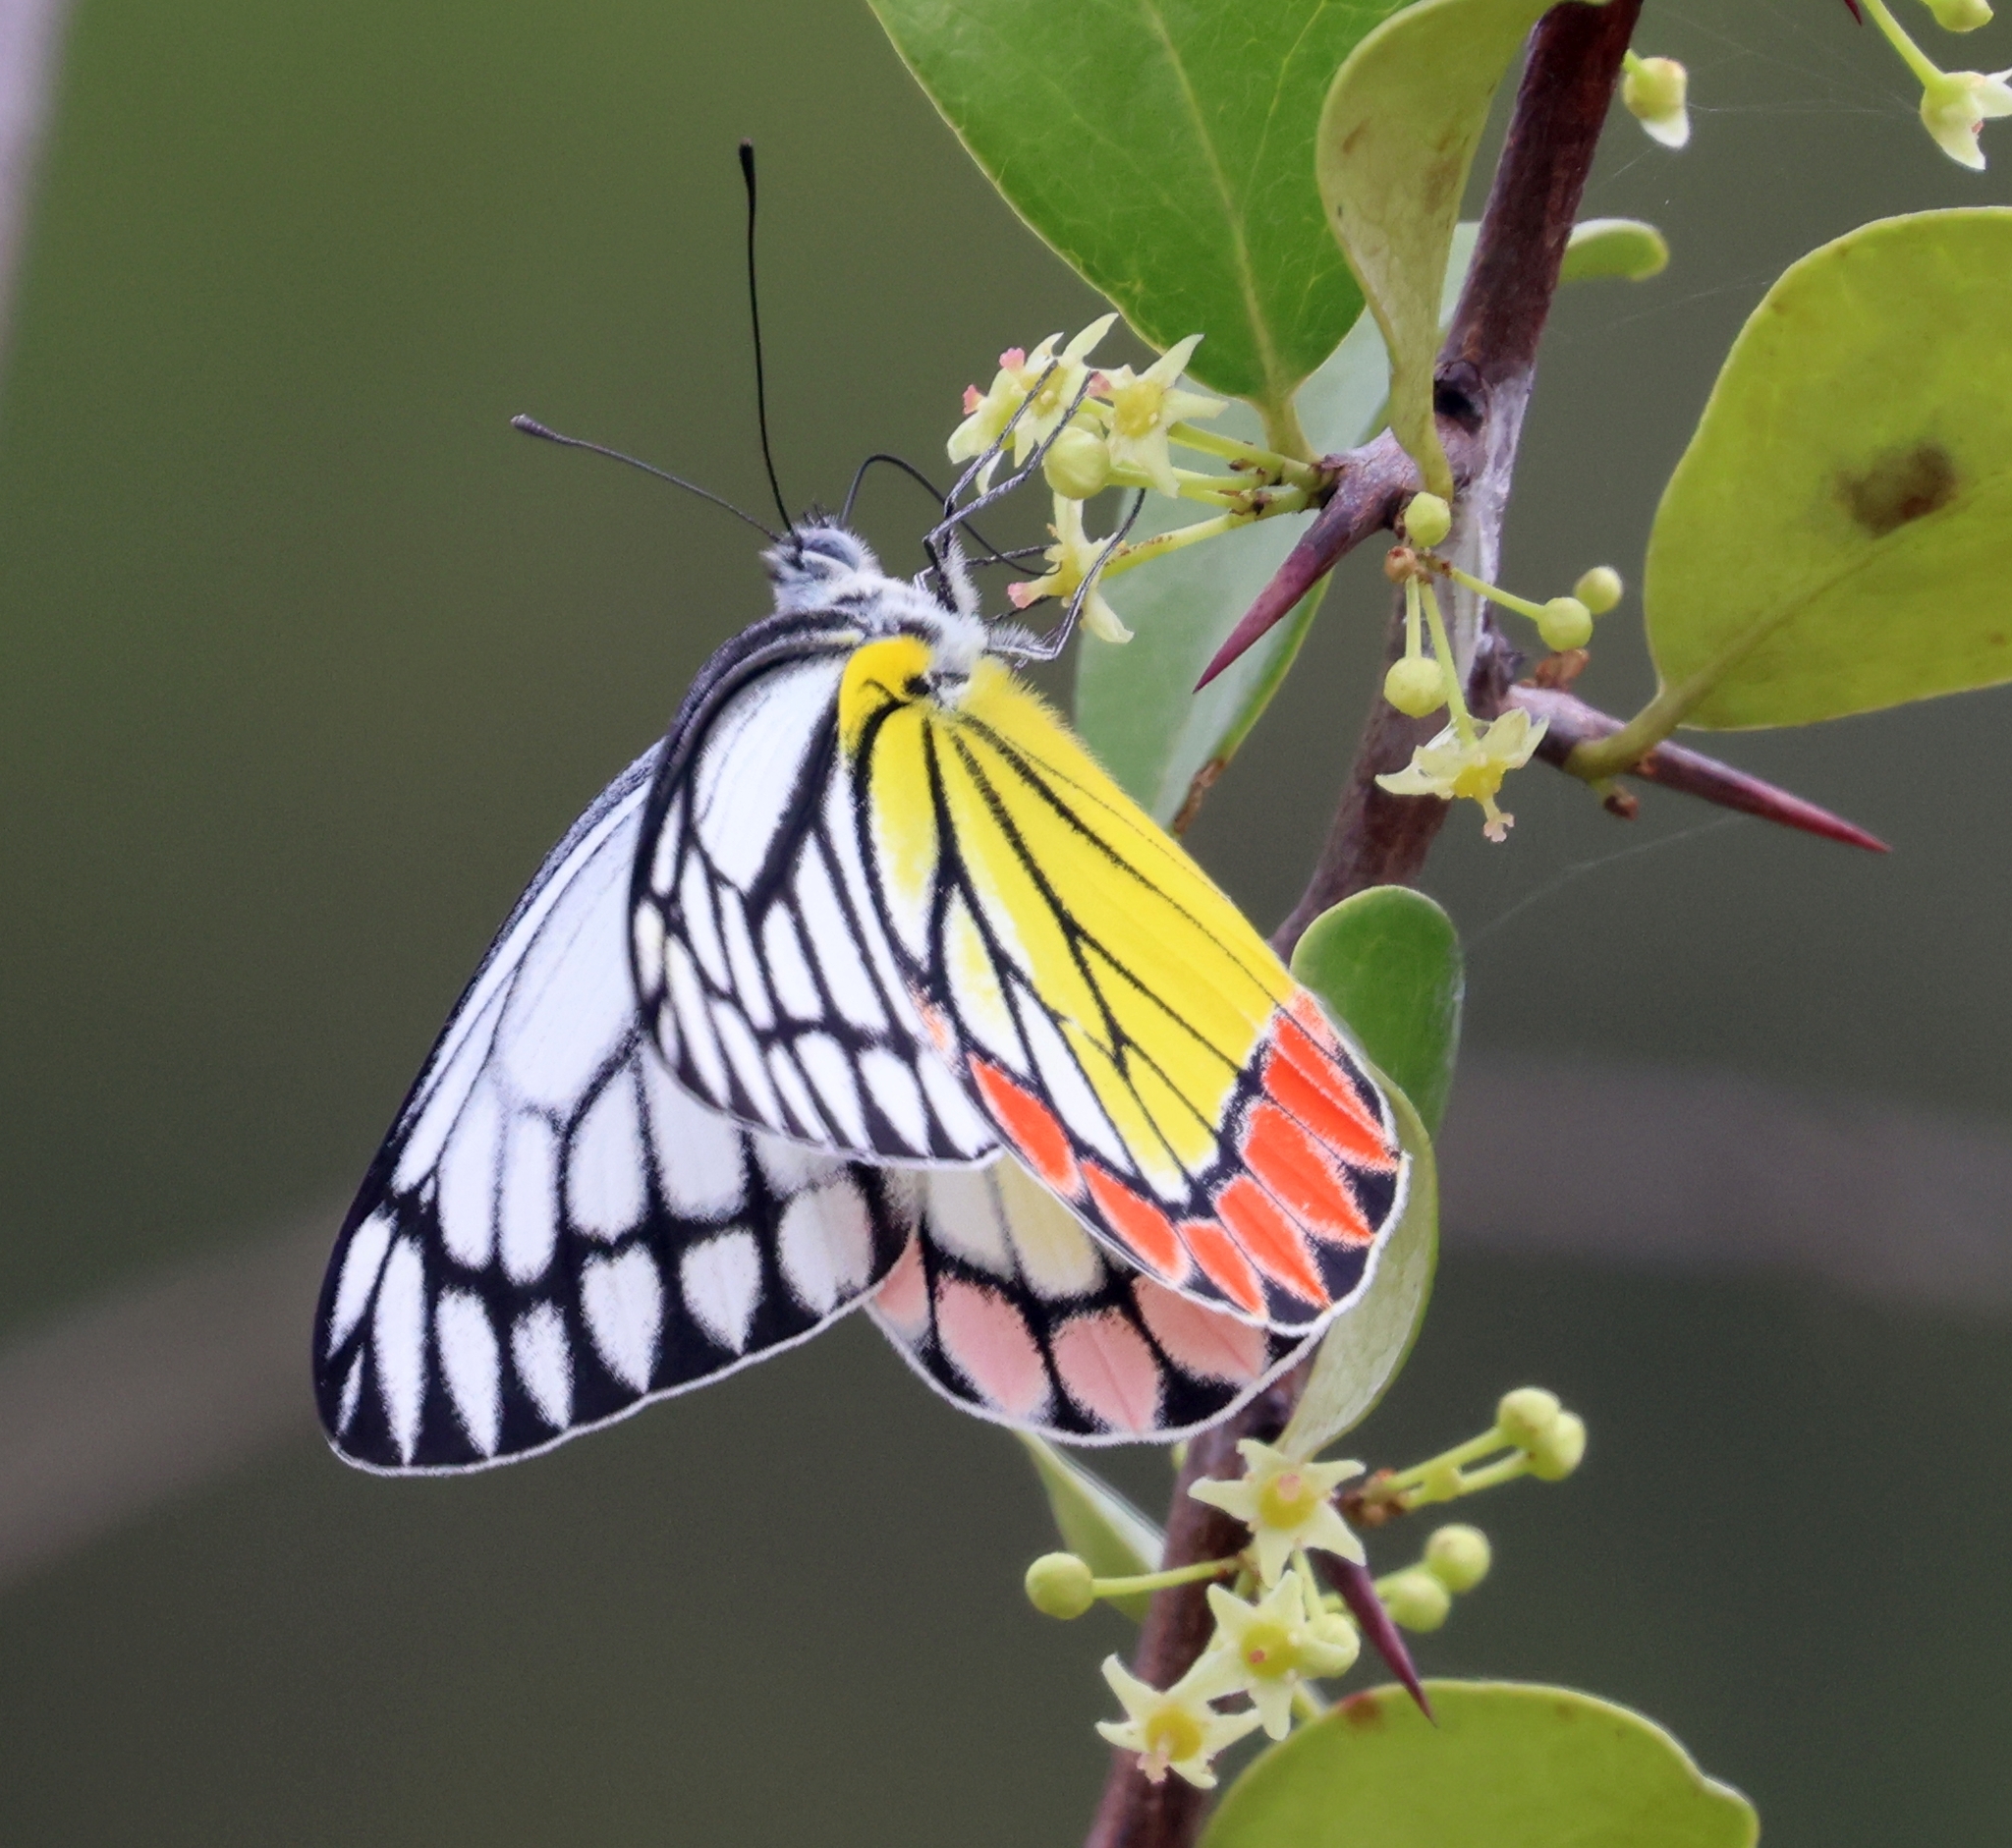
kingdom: Animalia
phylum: Arthropoda
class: Insecta
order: Lepidoptera
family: Pieridae
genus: Delias
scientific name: Delias eucharis
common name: Common jezebel
